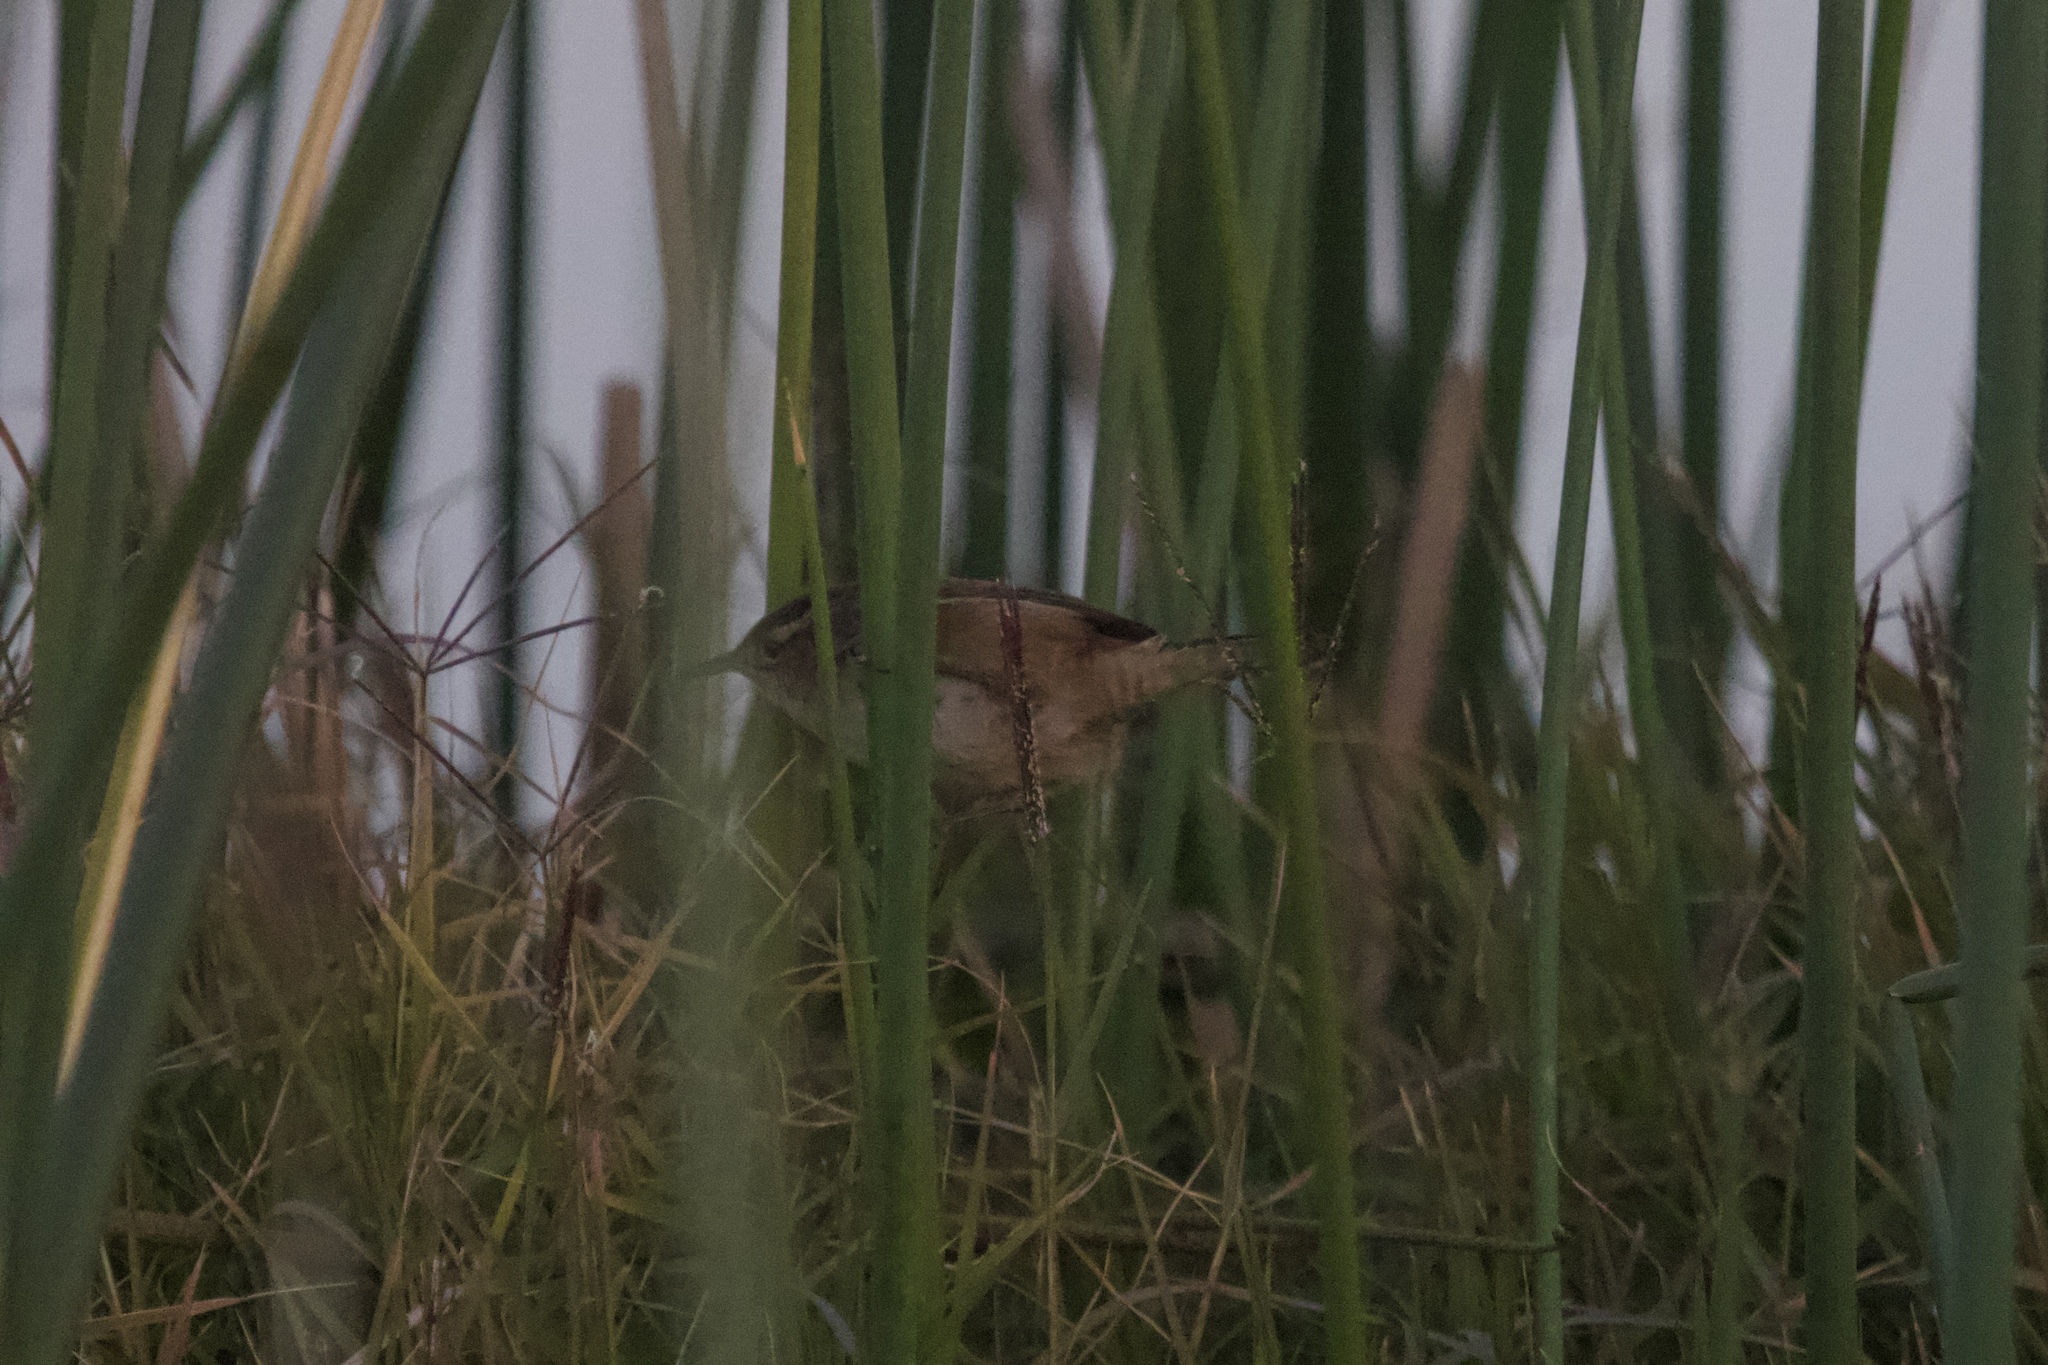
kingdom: Animalia
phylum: Chordata
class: Aves
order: Passeriformes
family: Troglodytidae
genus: Cistothorus
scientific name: Cistothorus palustris
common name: Marsh wren
